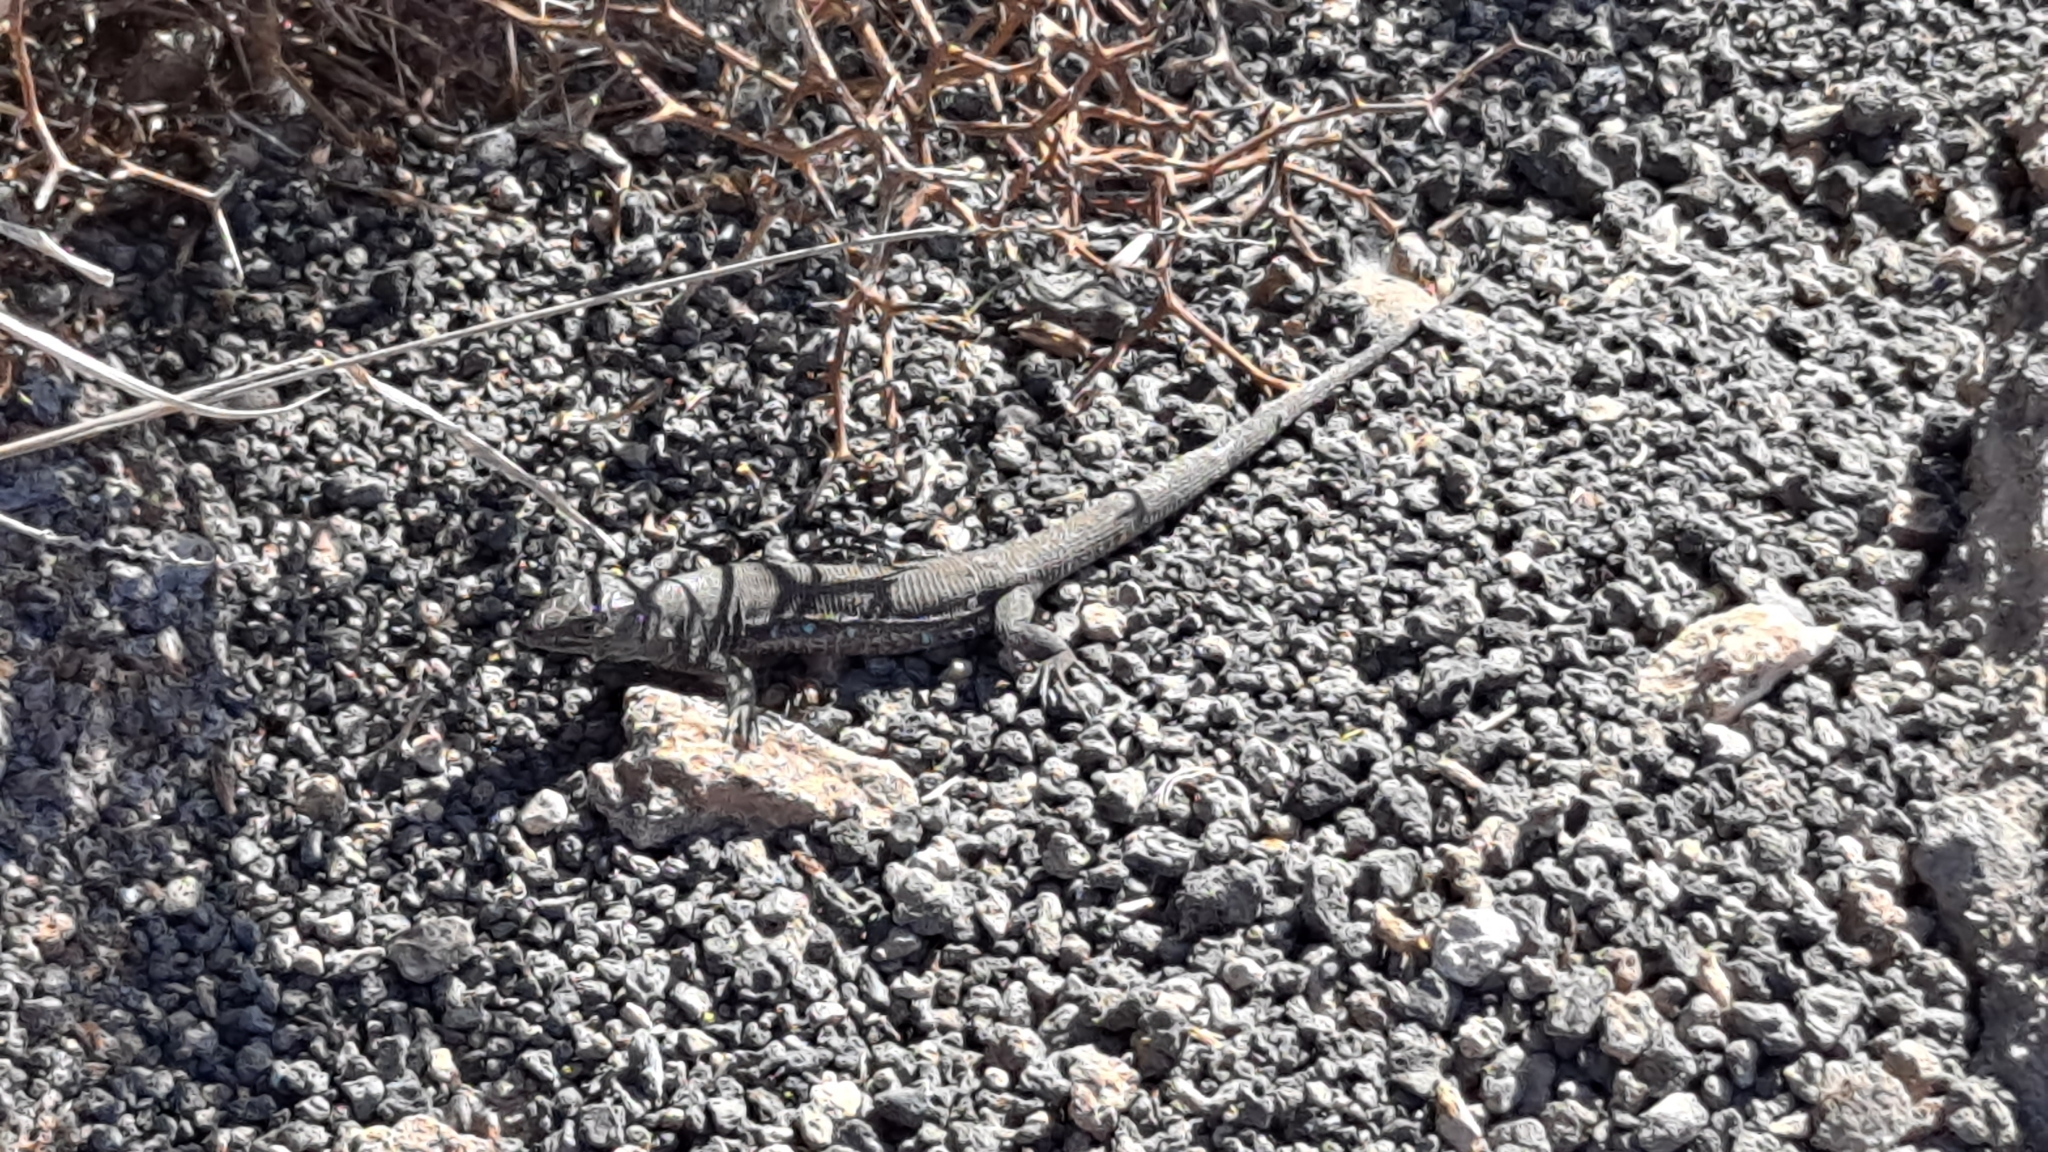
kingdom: Animalia
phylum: Chordata
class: Squamata
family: Lacertidae
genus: Gallotia
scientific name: Gallotia atlantica
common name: Atlantic lizard
